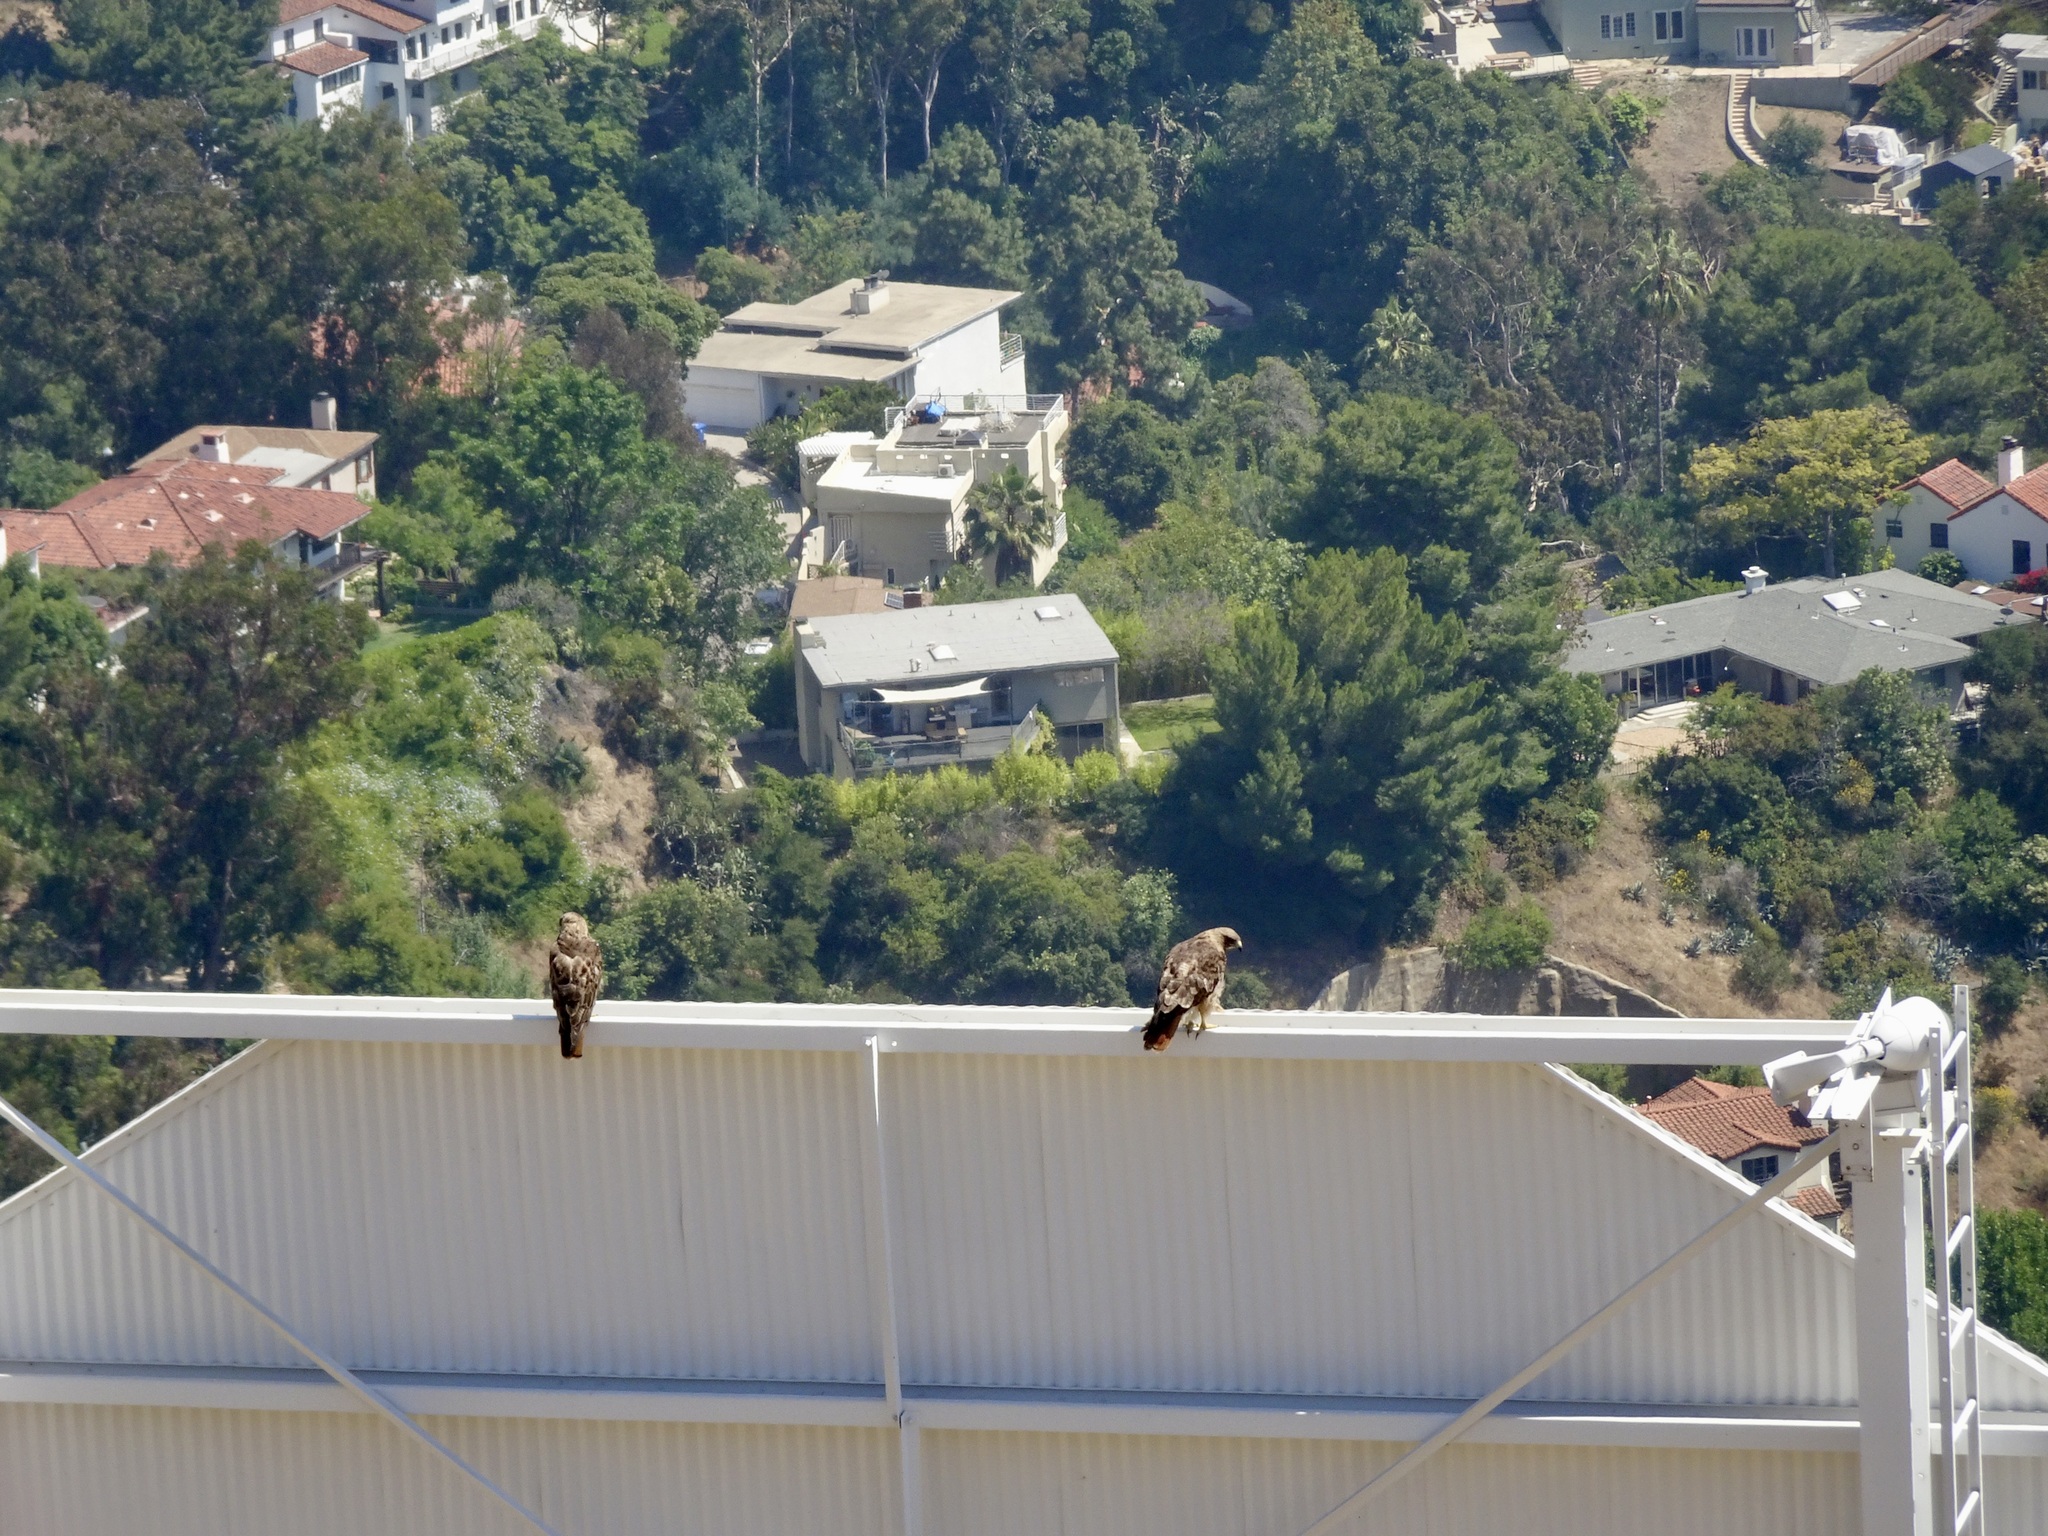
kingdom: Animalia
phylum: Chordata
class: Aves
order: Accipitriformes
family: Accipitridae
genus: Buteo
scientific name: Buteo jamaicensis
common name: Red-tailed hawk
